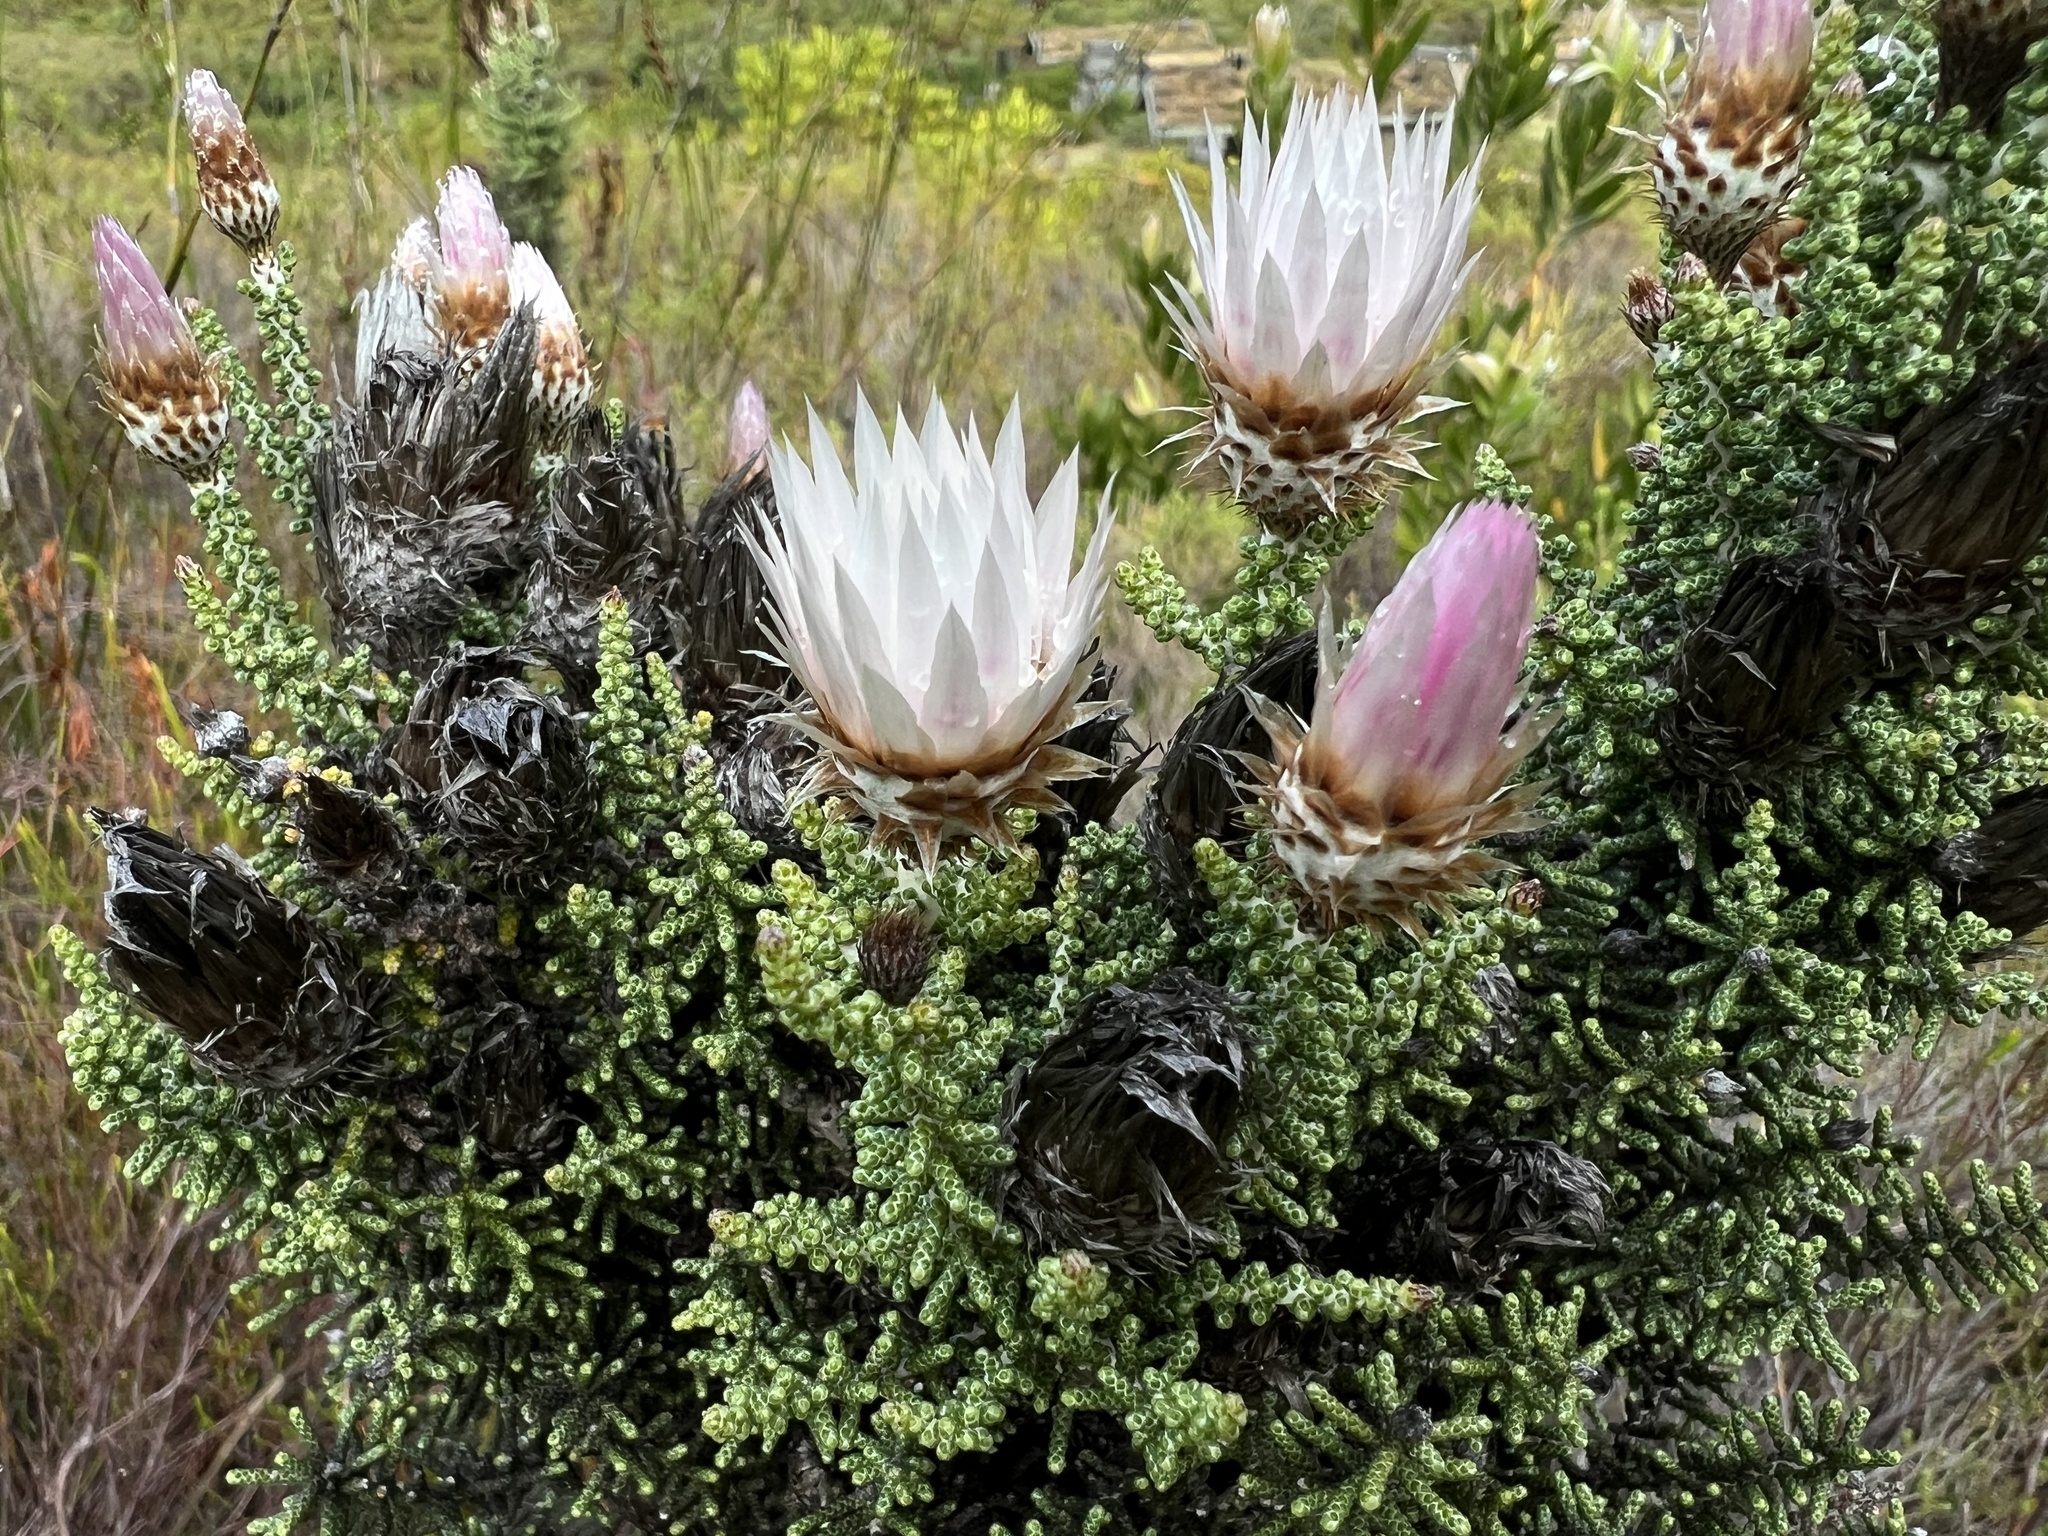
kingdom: Plantae
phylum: Tracheophyta
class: Magnoliopsida
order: Asterales
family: Asteraceae
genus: Phaenocoma
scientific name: Phaenocoma prolifera
